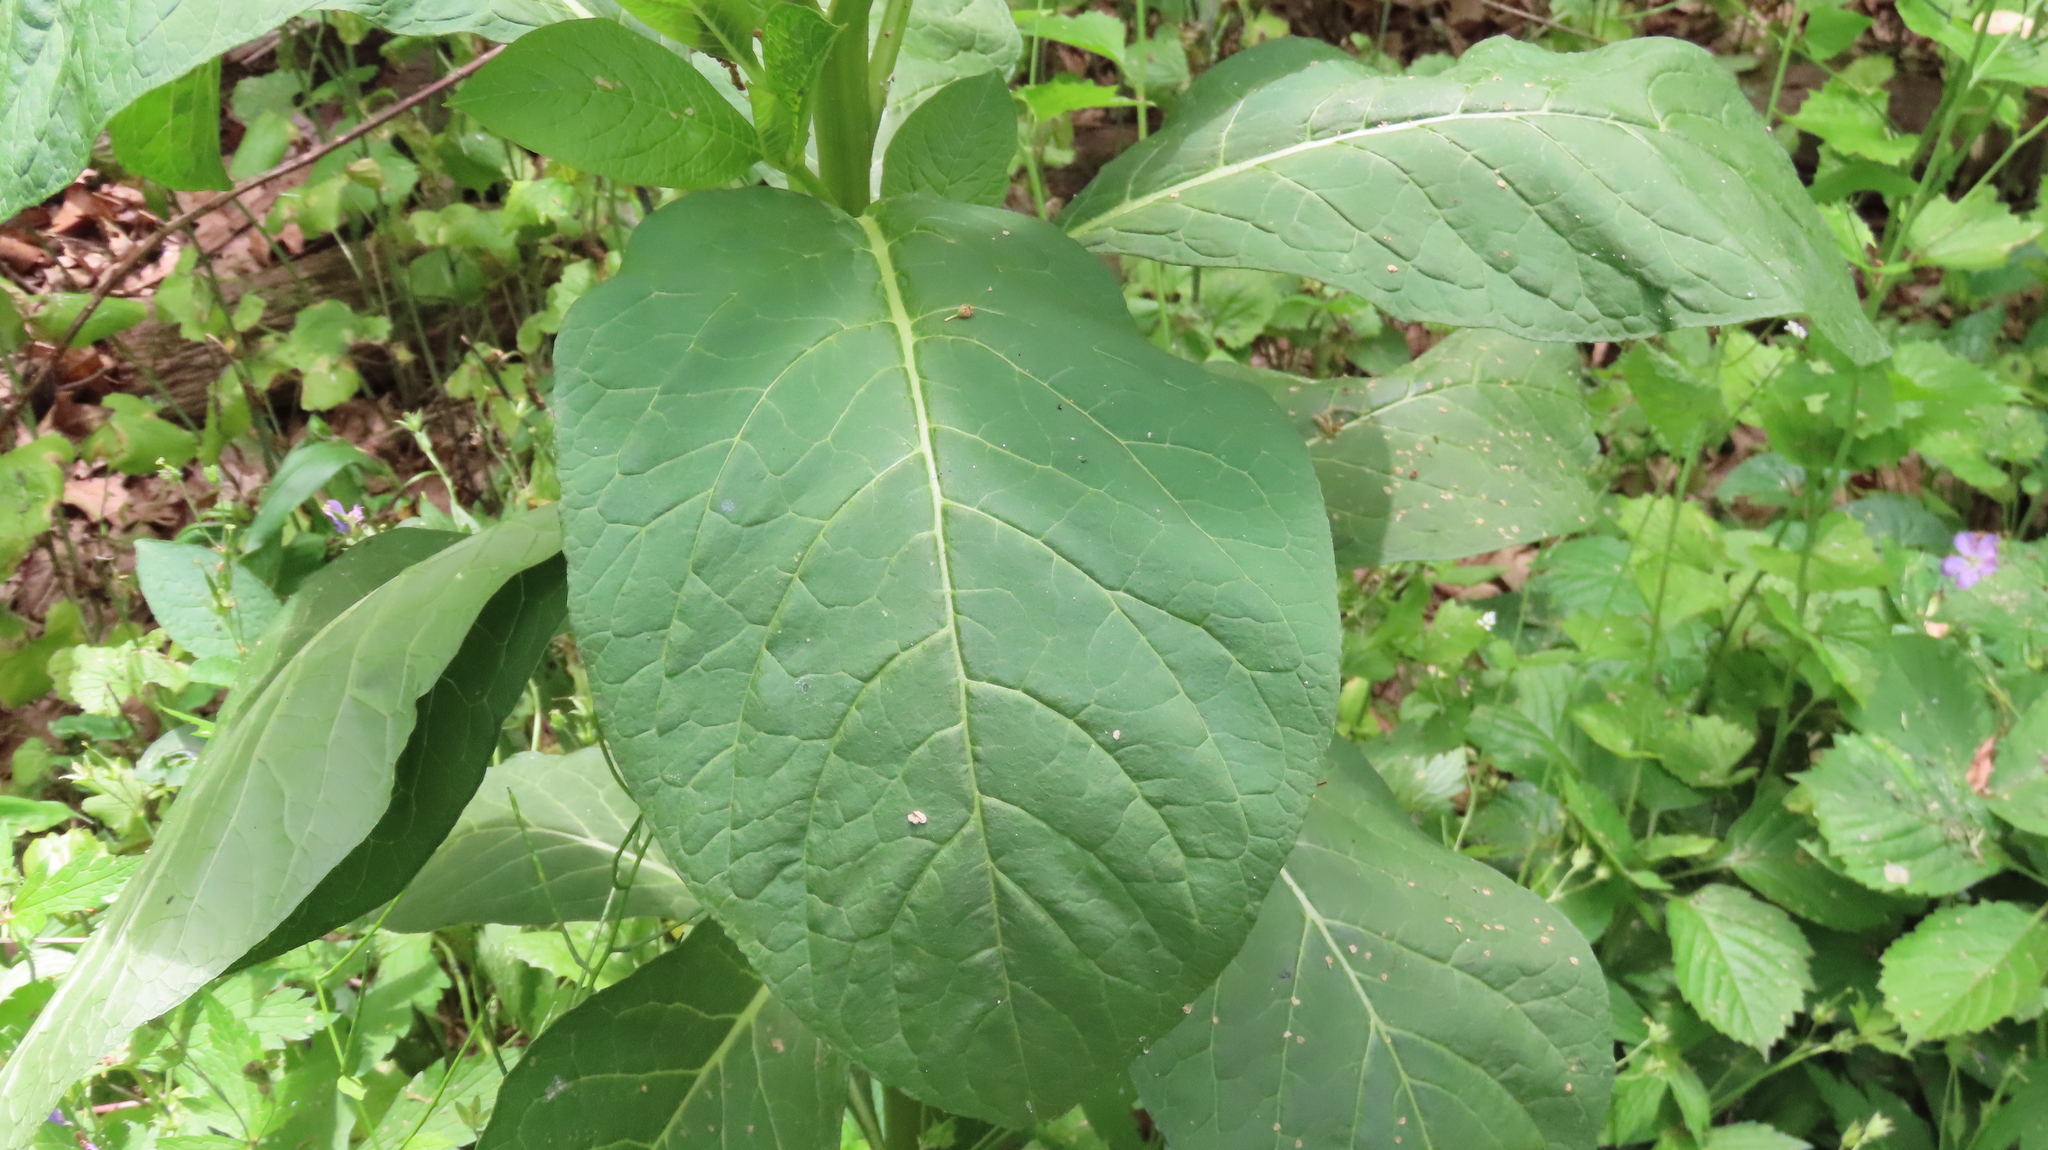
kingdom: Plantae
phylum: Tracheophyta
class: Magnoliopsida
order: Caryophyllales
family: Phytolaccaceae
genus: Phytolacca
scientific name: Phytolacca acinosa
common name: Indian pokeweed
